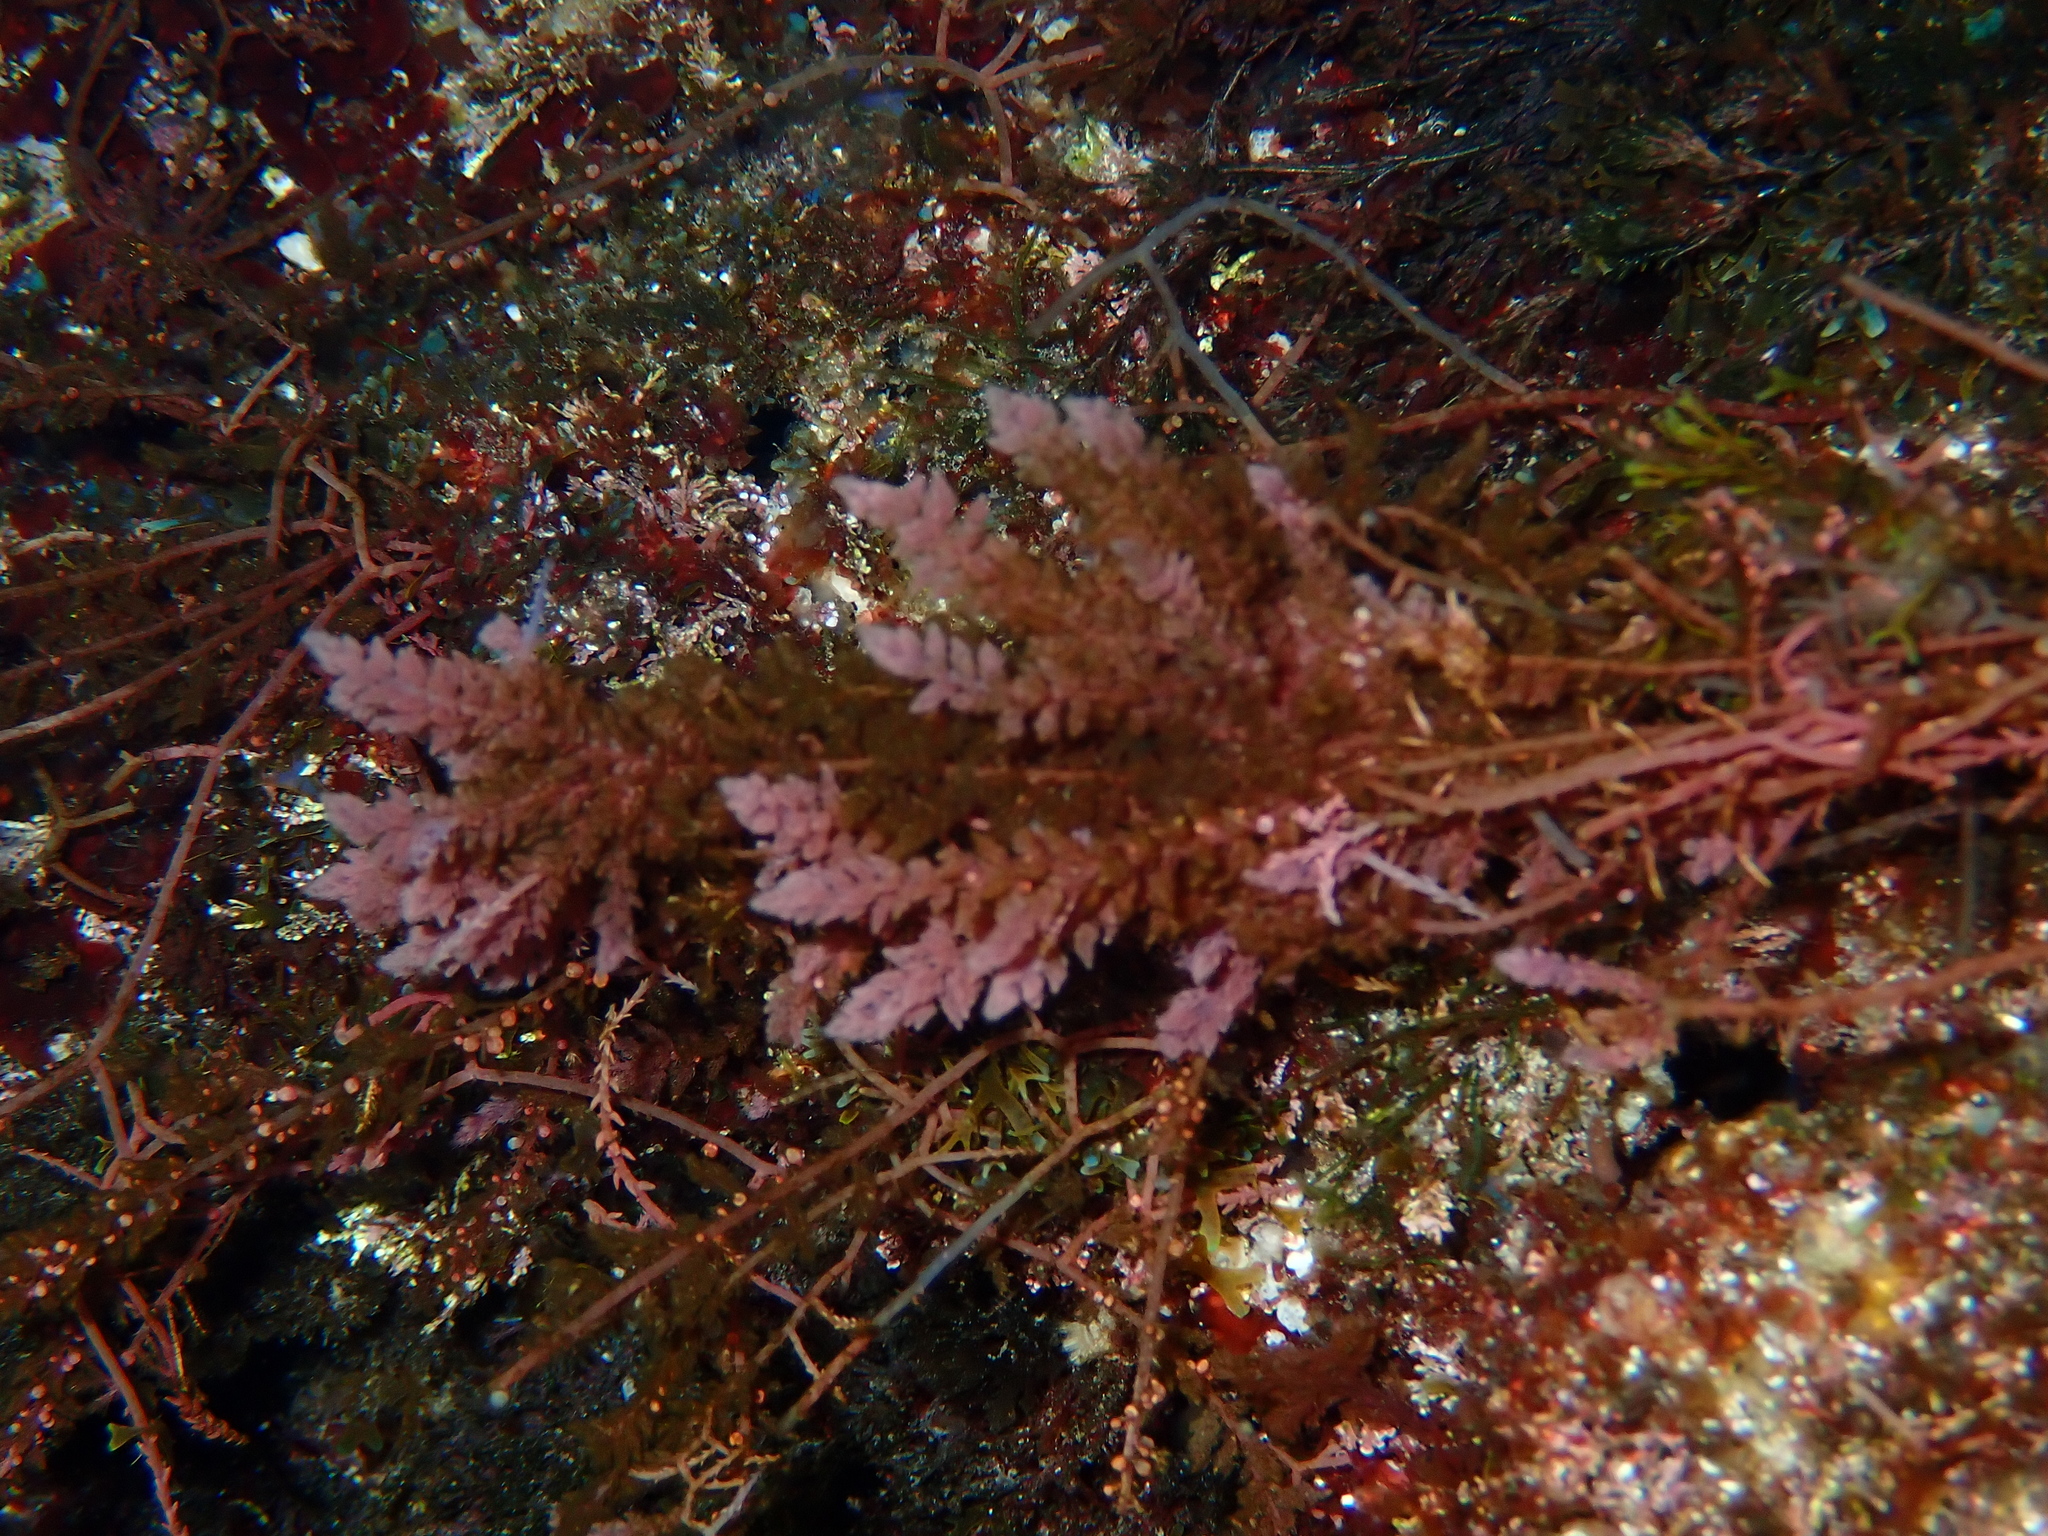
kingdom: Plantae
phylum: Rhodophyta
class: Florideophyceae
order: Bonnemaisoniales
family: Bonnemaisoniaceae
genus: Asparagopsis
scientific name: Asparagopsis armata
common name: Harpoon weed
